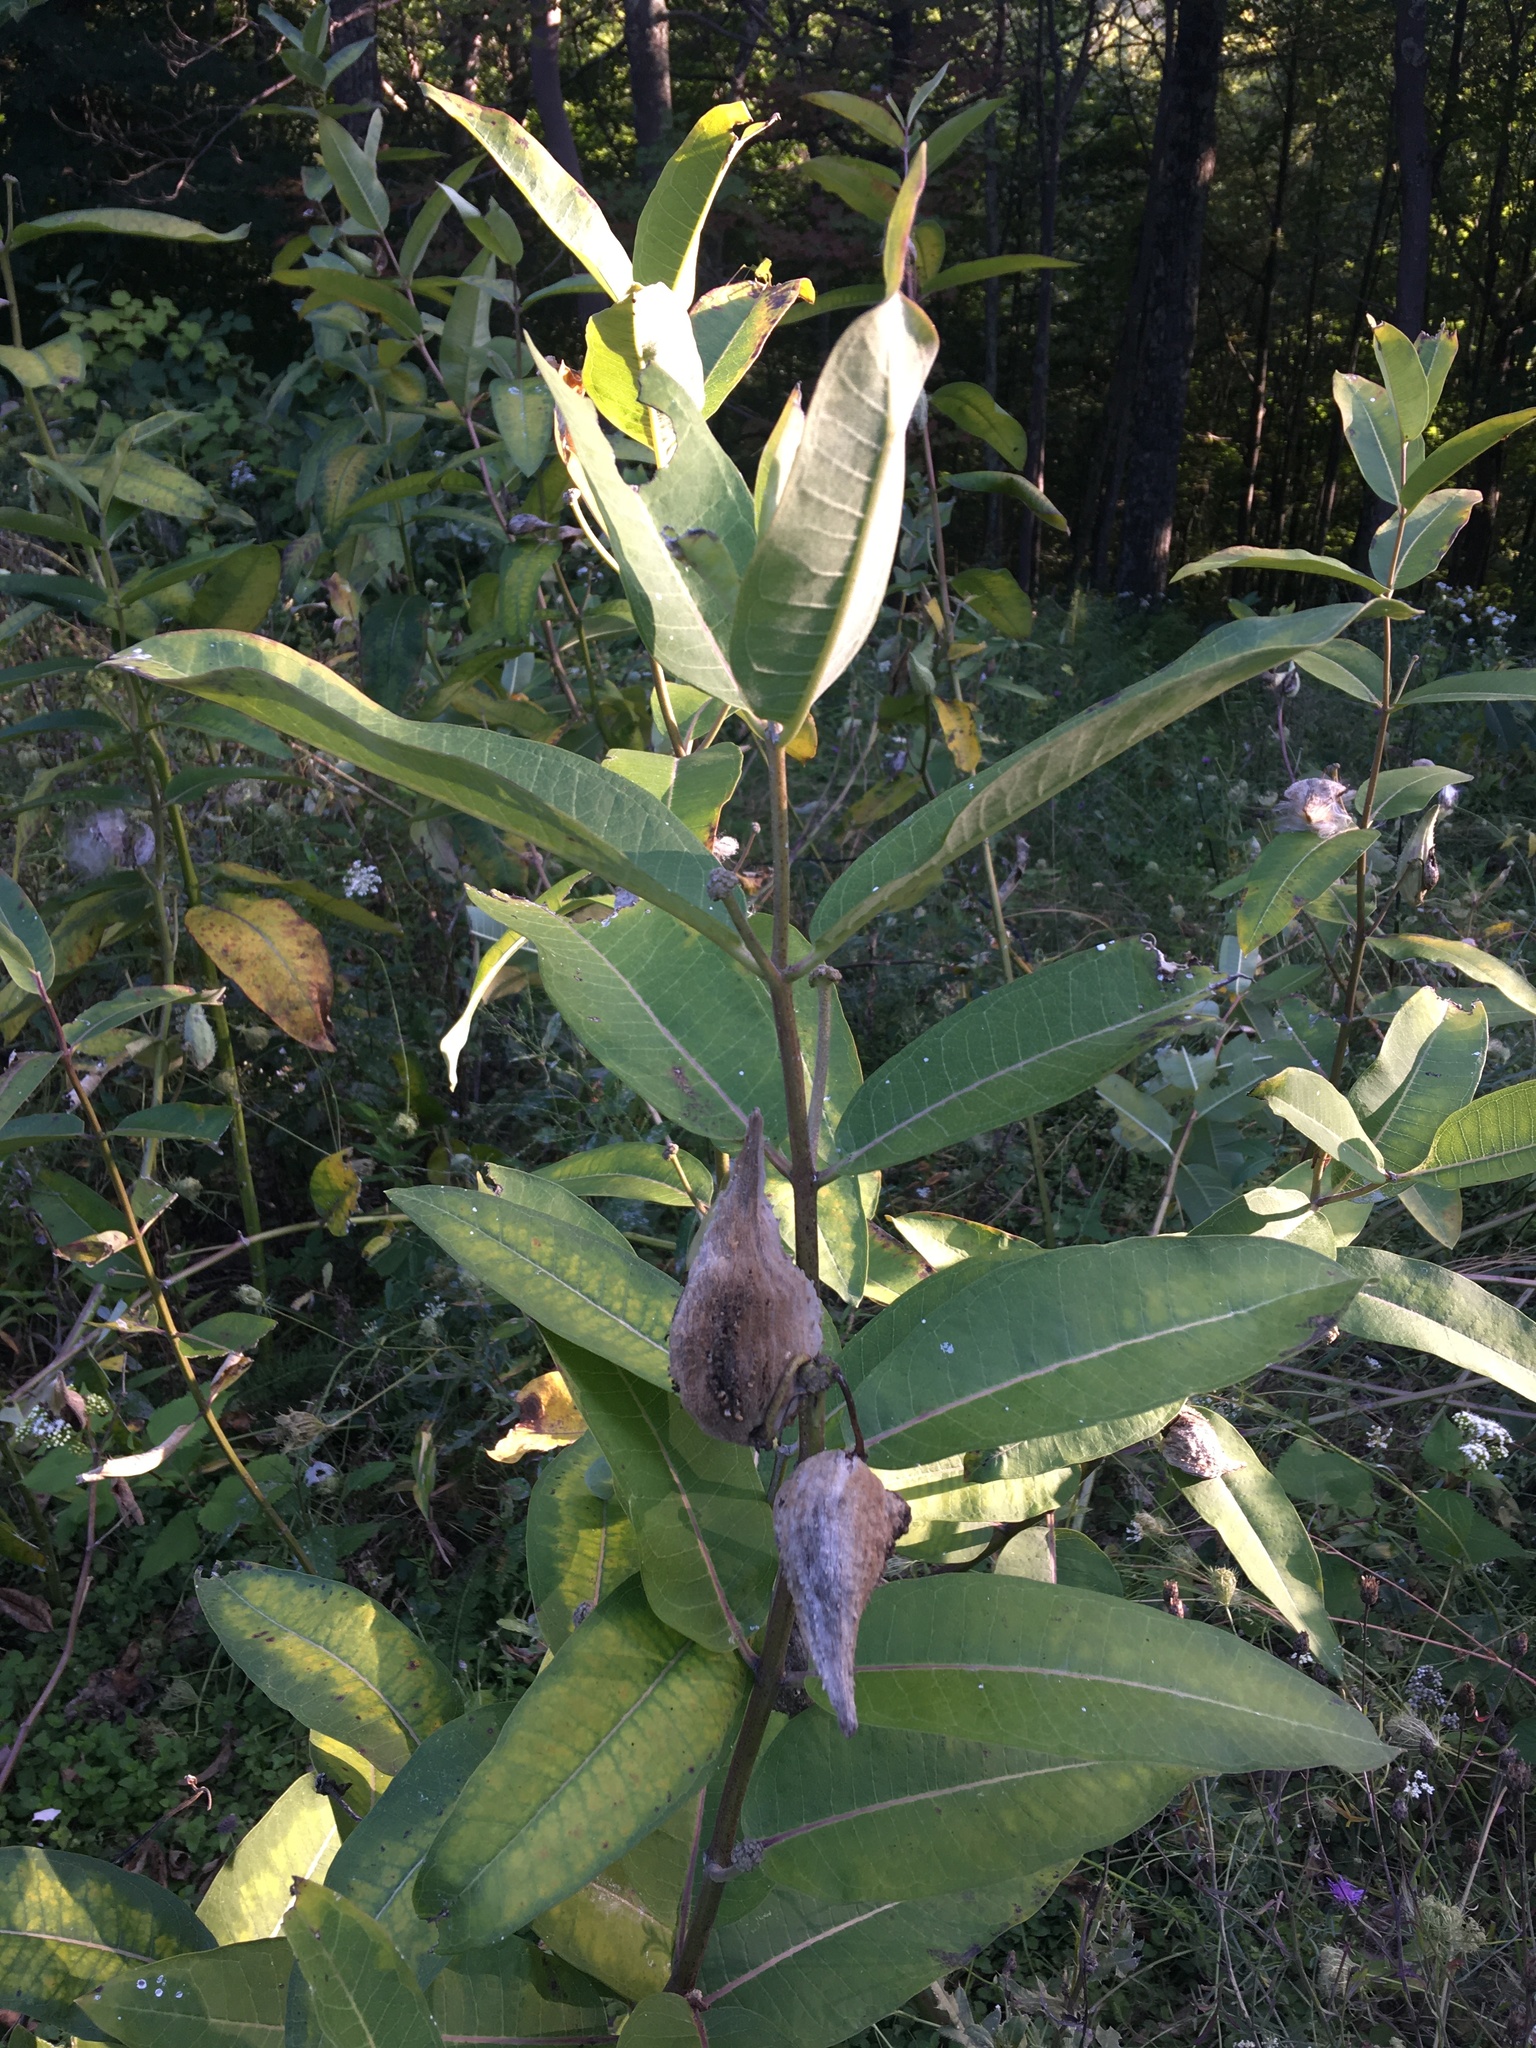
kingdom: Plantae
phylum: Tracheophyta
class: Magnoliopsida
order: Gentianales
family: Apocynaceae
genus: Asclepias
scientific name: Asclepias syriaca
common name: Common milkweed
